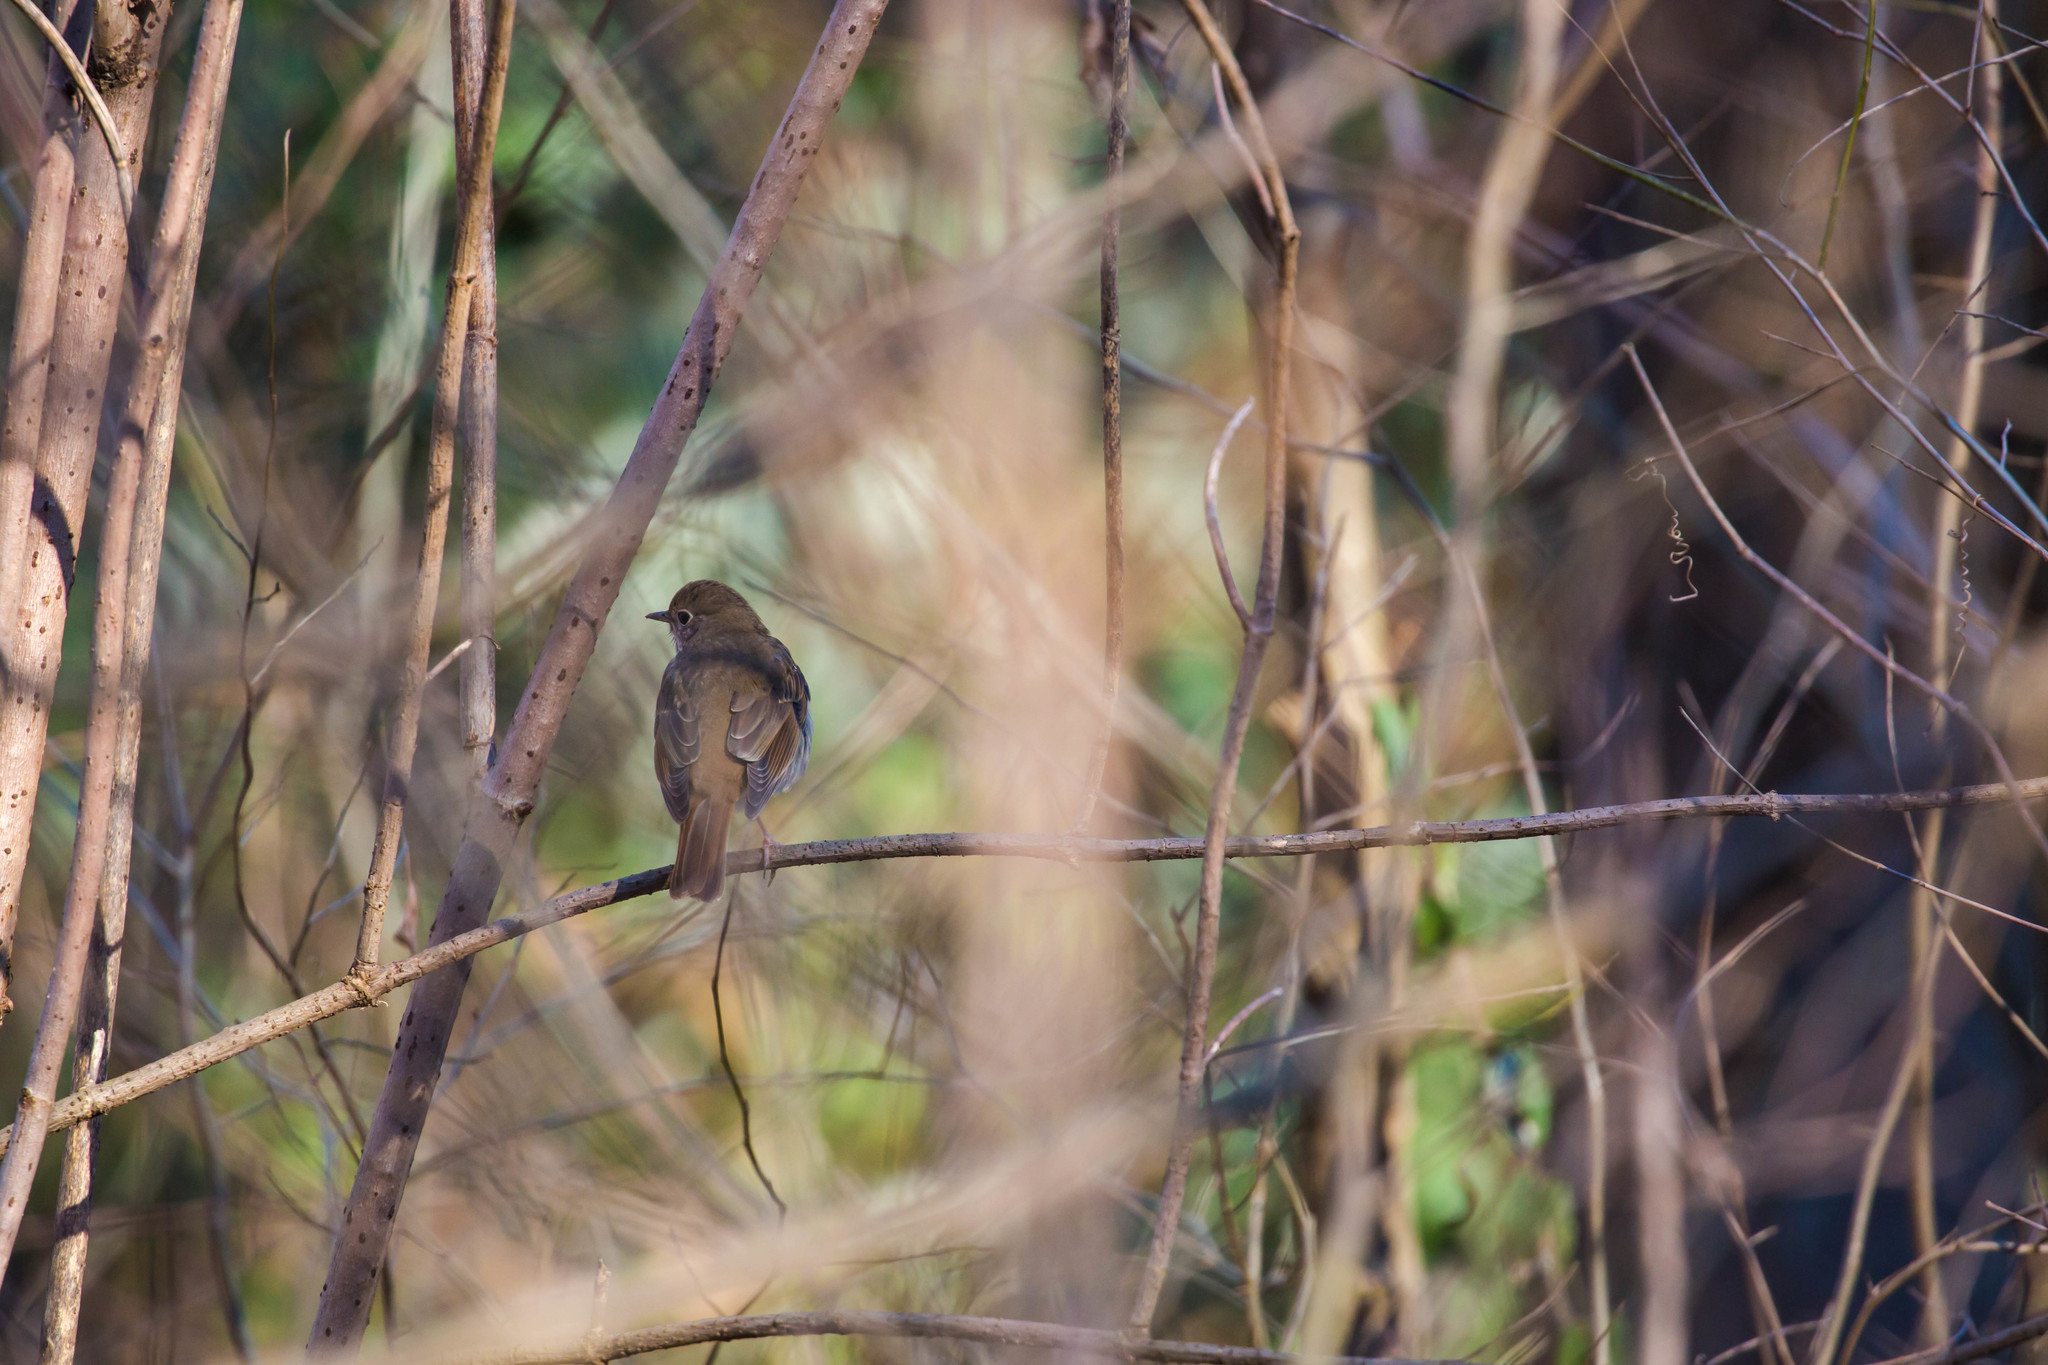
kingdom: Animalia
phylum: Chordata
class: Aves
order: Passeriformes
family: Turdidae
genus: Catharus
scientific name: Catharus guttatus
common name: Hermit thrush
